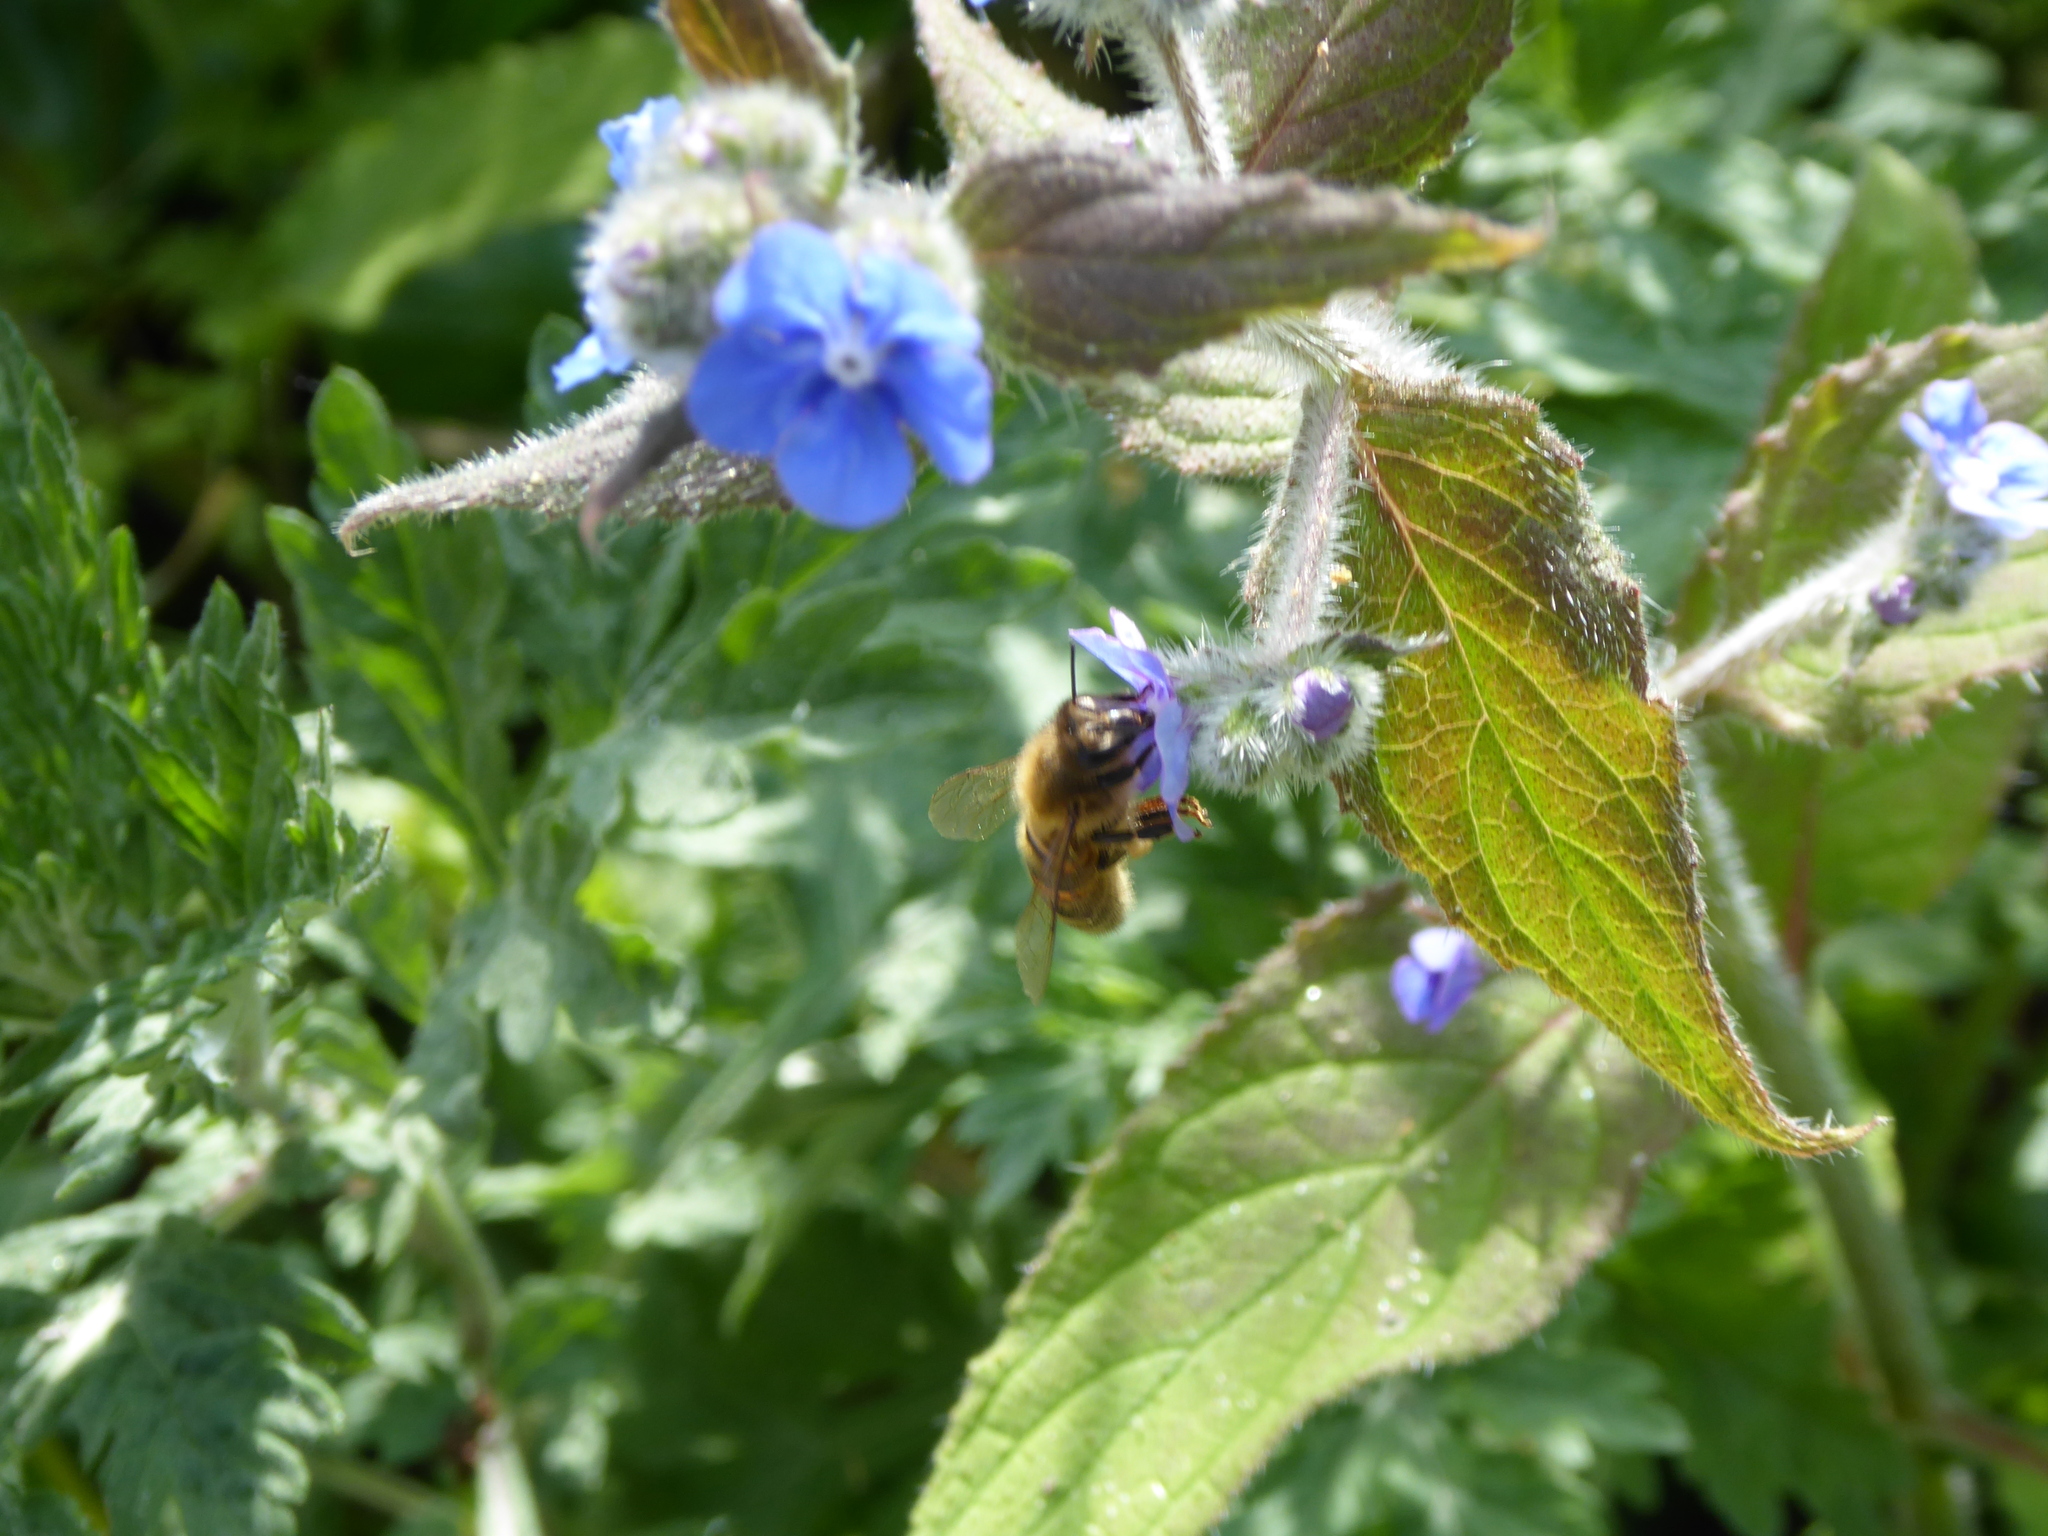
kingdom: Animalia
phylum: Arthropoda
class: Insecta
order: Hymenoptera
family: Apidae
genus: Apis
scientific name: Apis mellifera
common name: Honey bee
